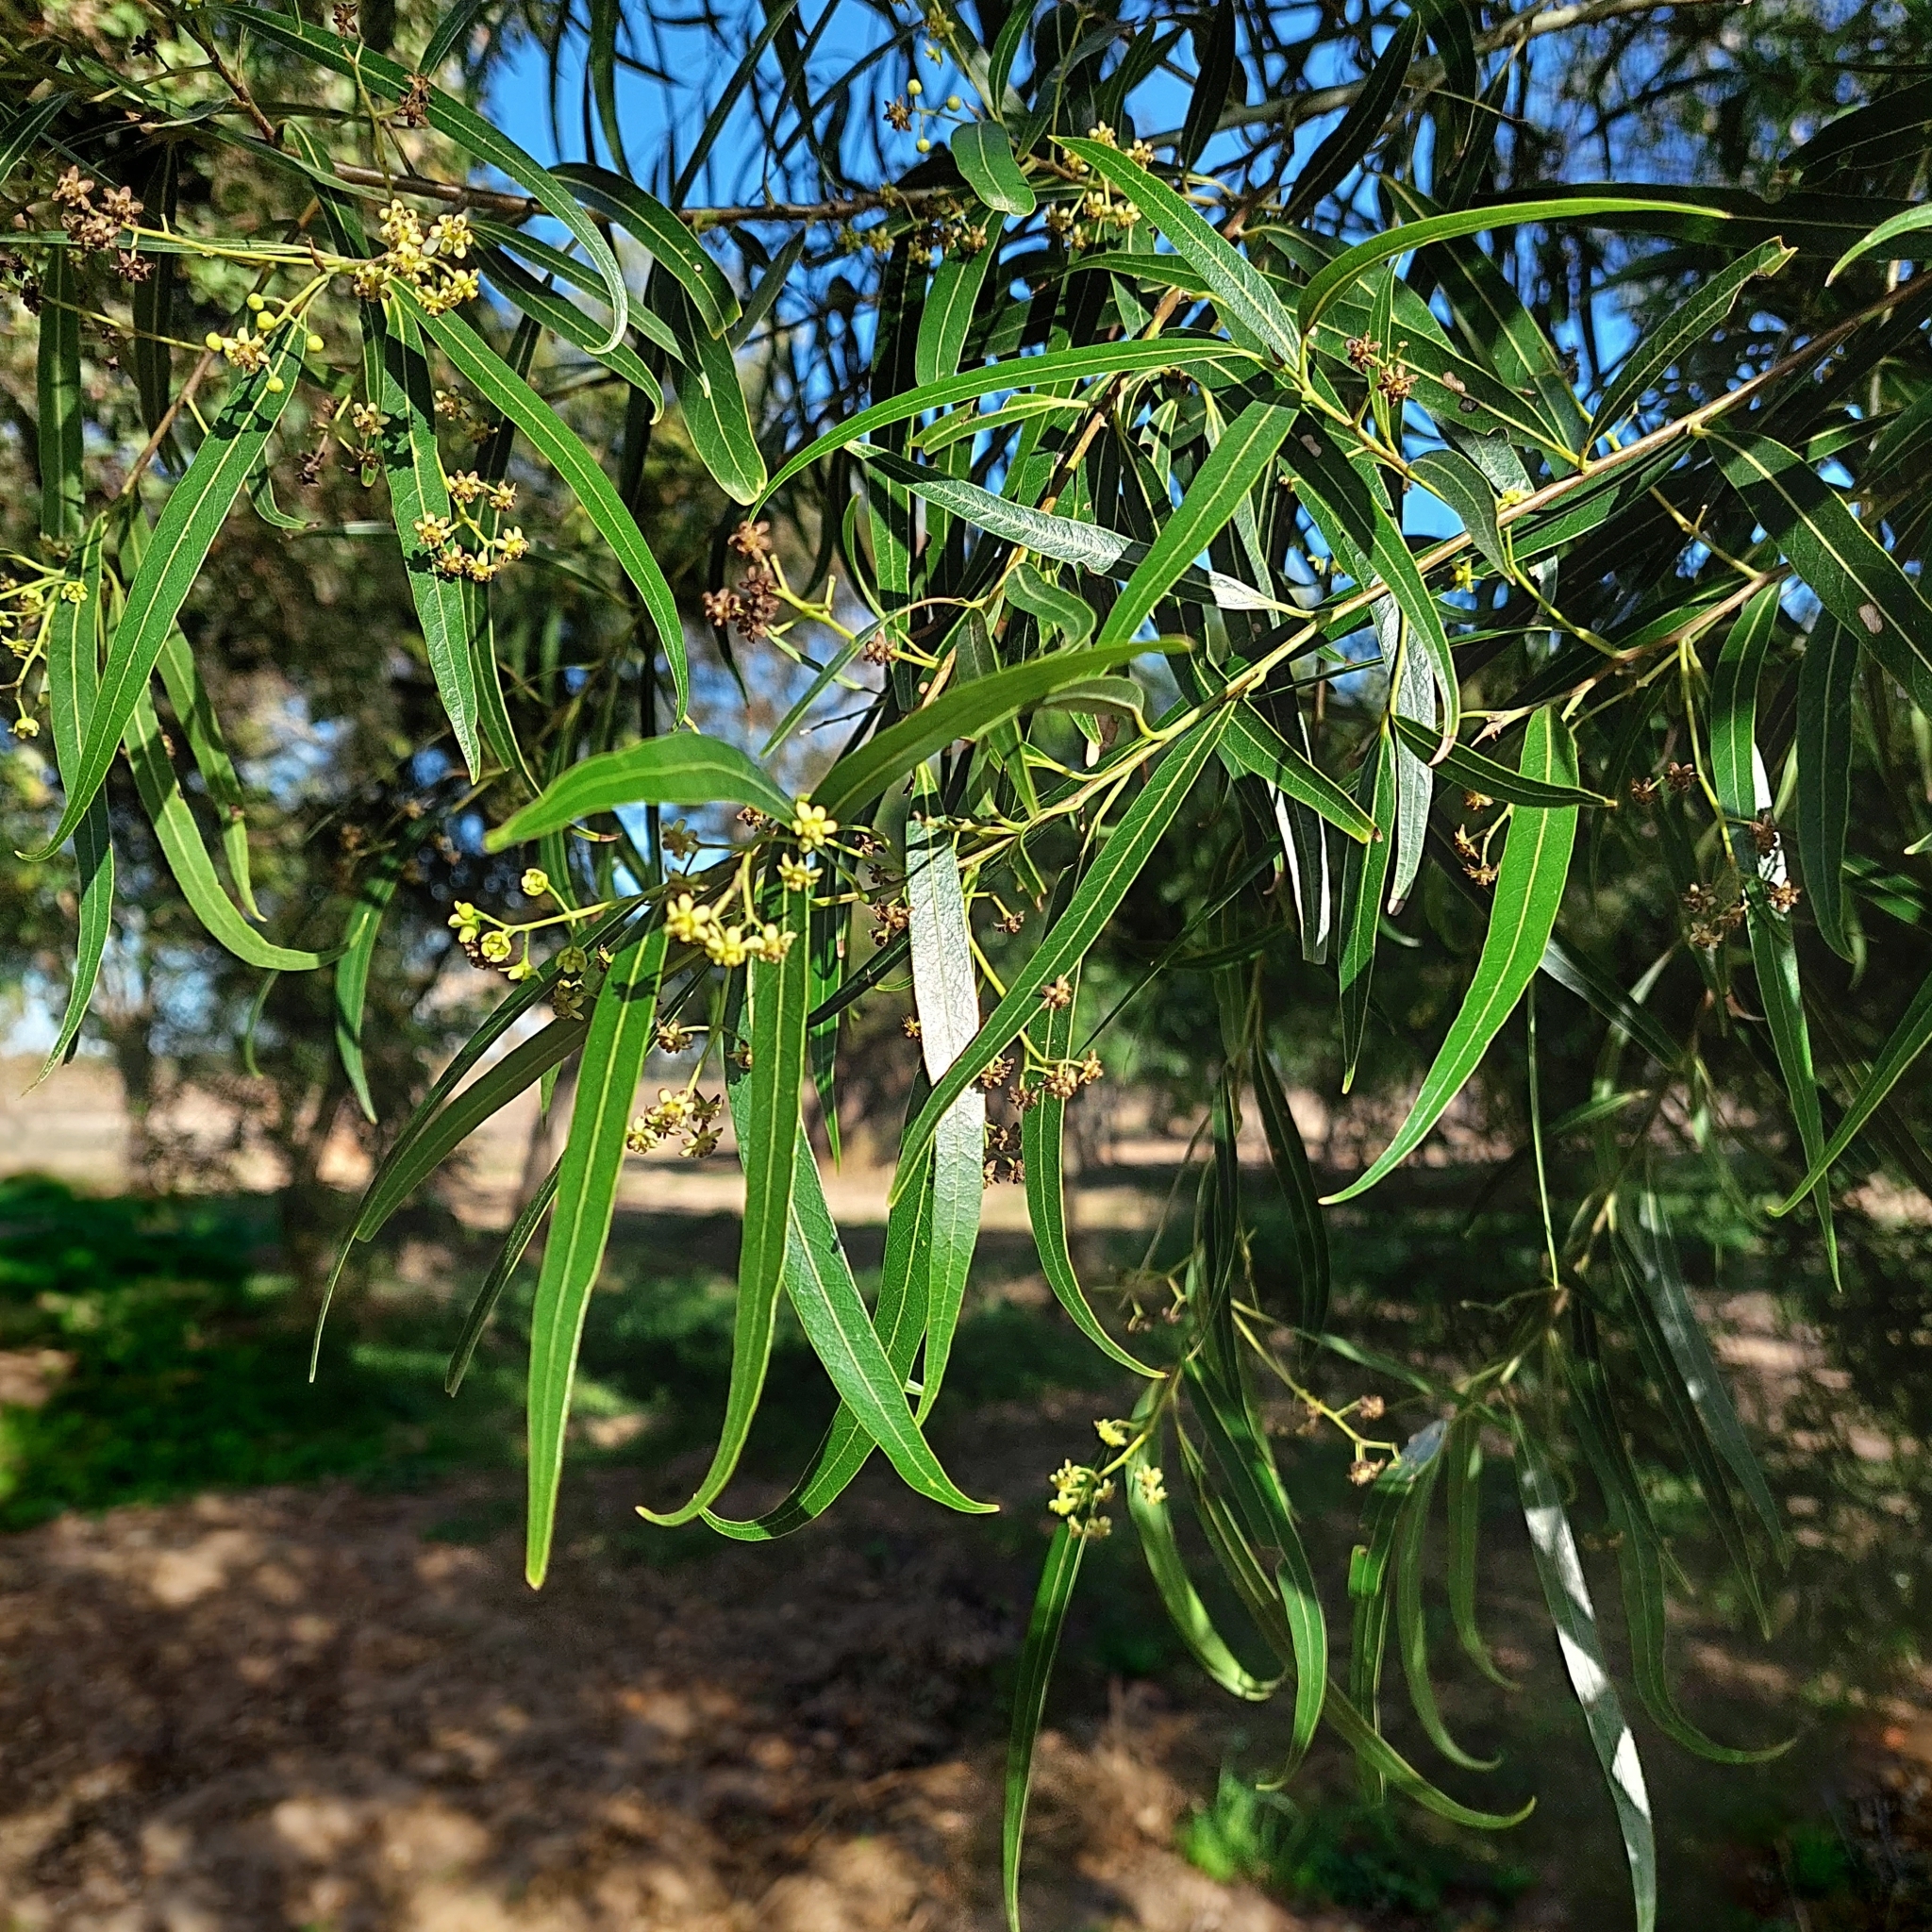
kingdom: Plantae
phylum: Tracheophyta
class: Magnoliopsida
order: Laurales
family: Lauraceae
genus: Nectandra
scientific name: Nectandra angustifolia
